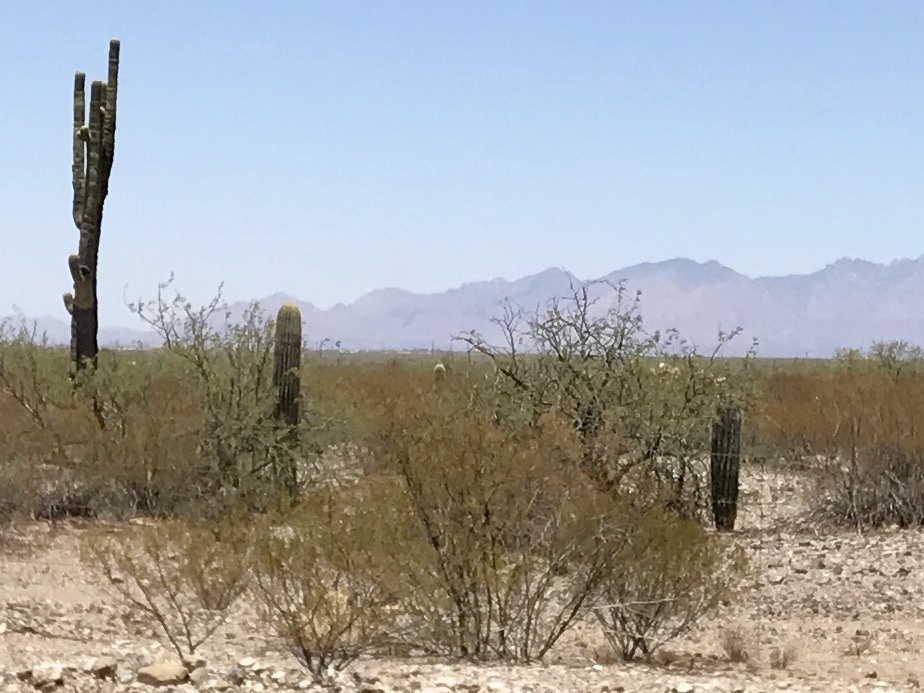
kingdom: Plantae
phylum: Tracheophyta
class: Magnoliopsida
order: Caryophyllales
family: Cactaceae
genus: Carnegiea
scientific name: Carnegiea gigantea
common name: Saguaro
